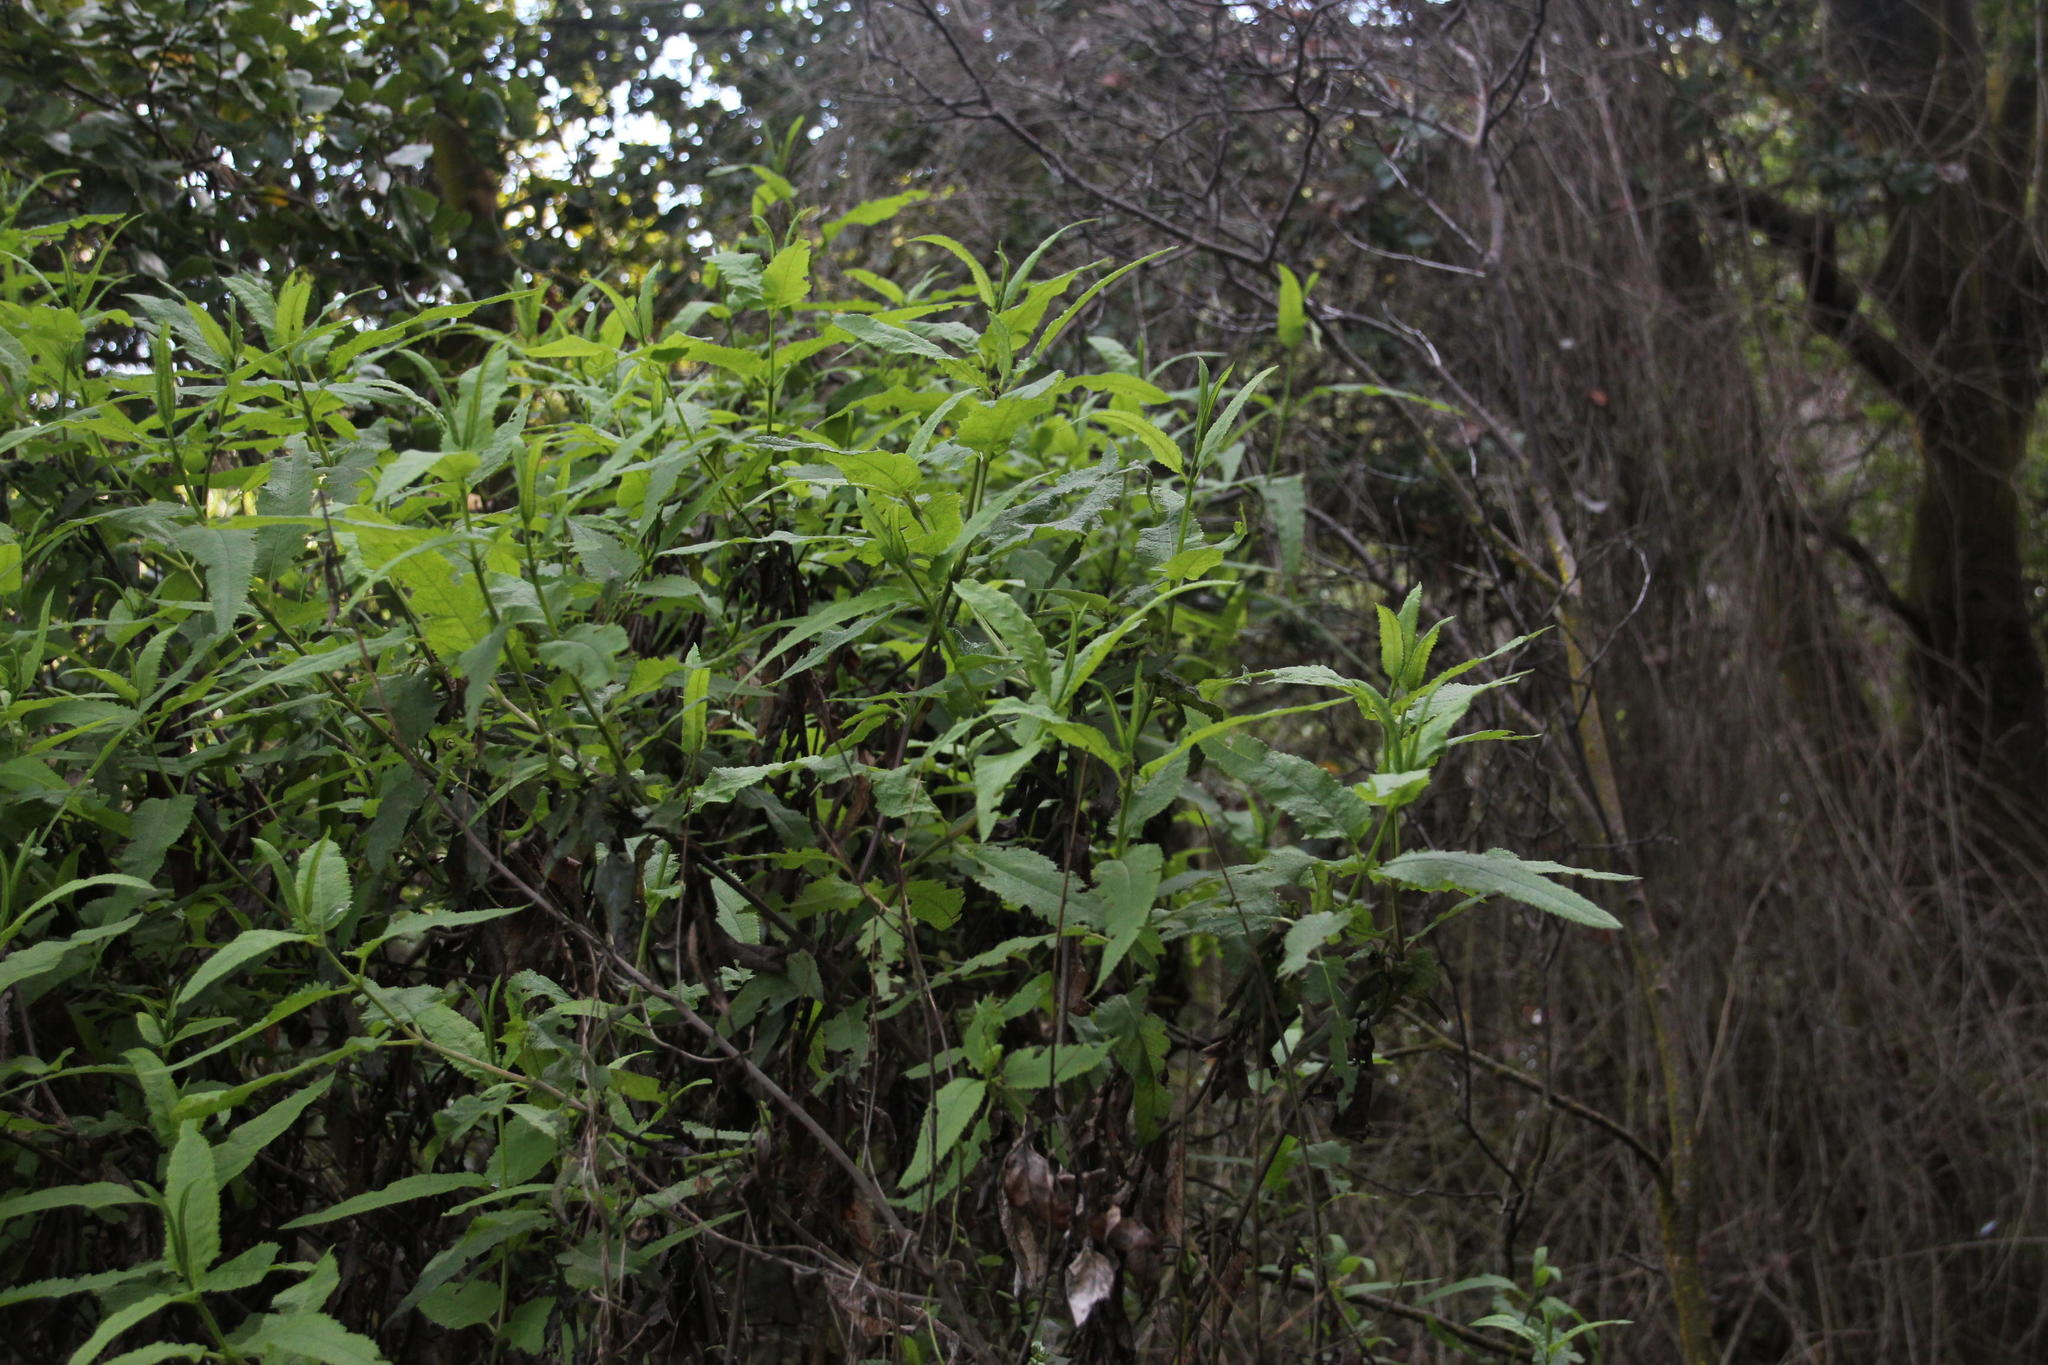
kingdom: Plantae
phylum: Tracheophyta
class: Magnoliopsida
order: Asterales
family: Asteraceae
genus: Aristeguietia
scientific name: Aristeguietia salvia
